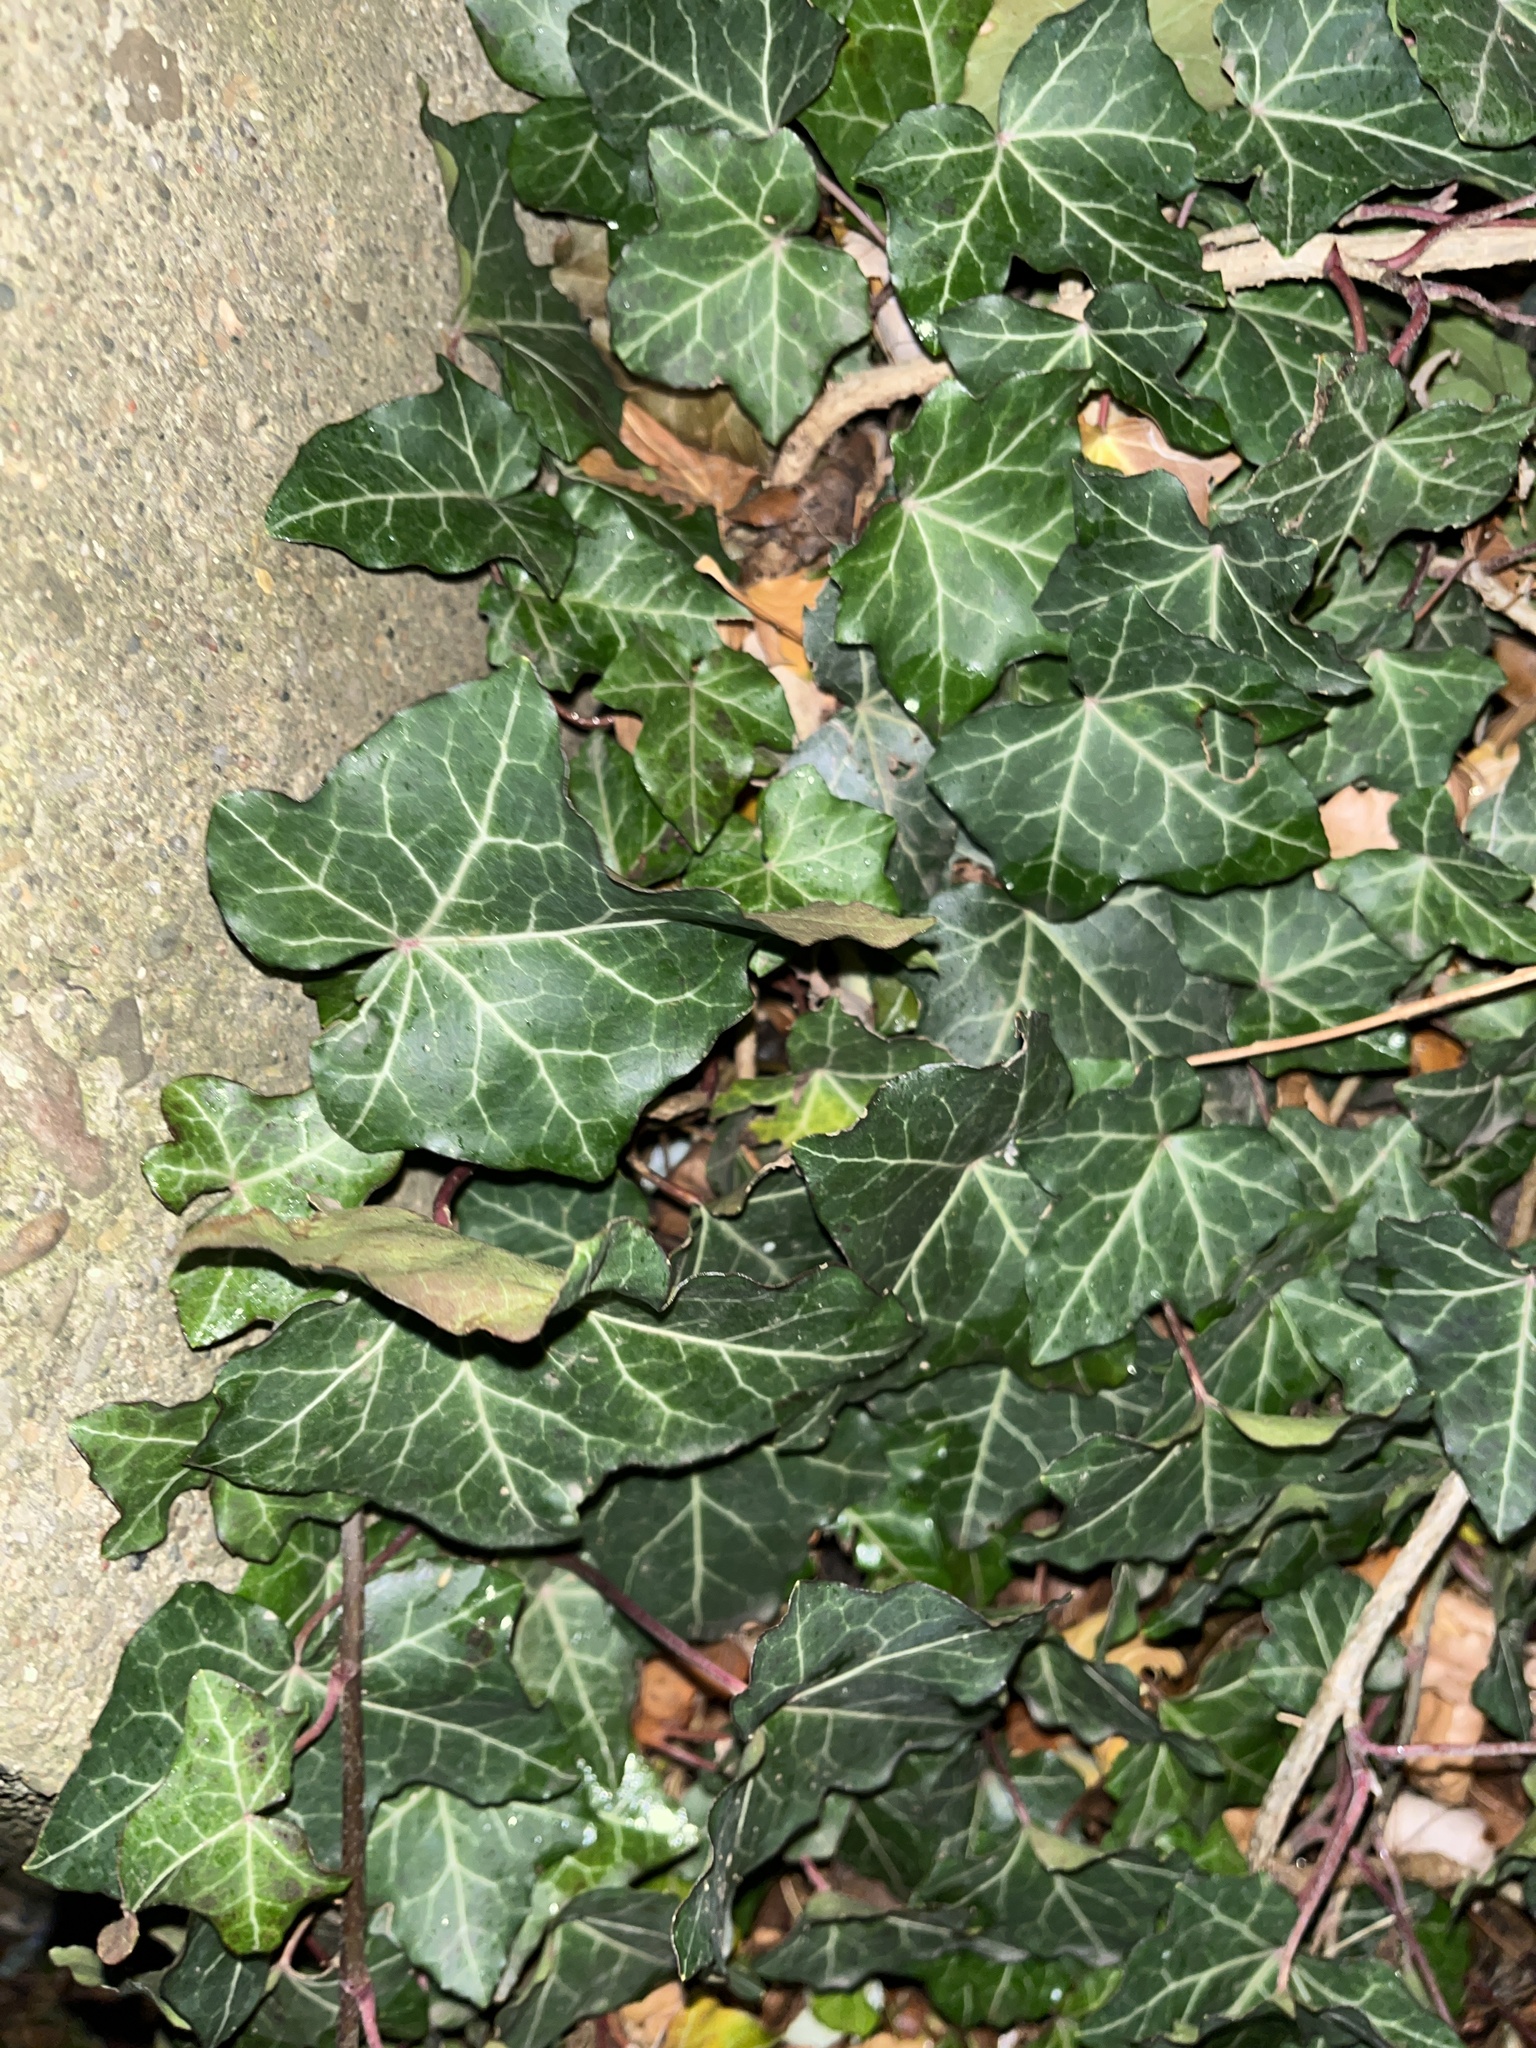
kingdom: Plantae
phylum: Tracheophyta
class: Magnoliopsida
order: Apiales
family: Araliaceae
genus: Hedera
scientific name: Hedera helix
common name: Ivy
